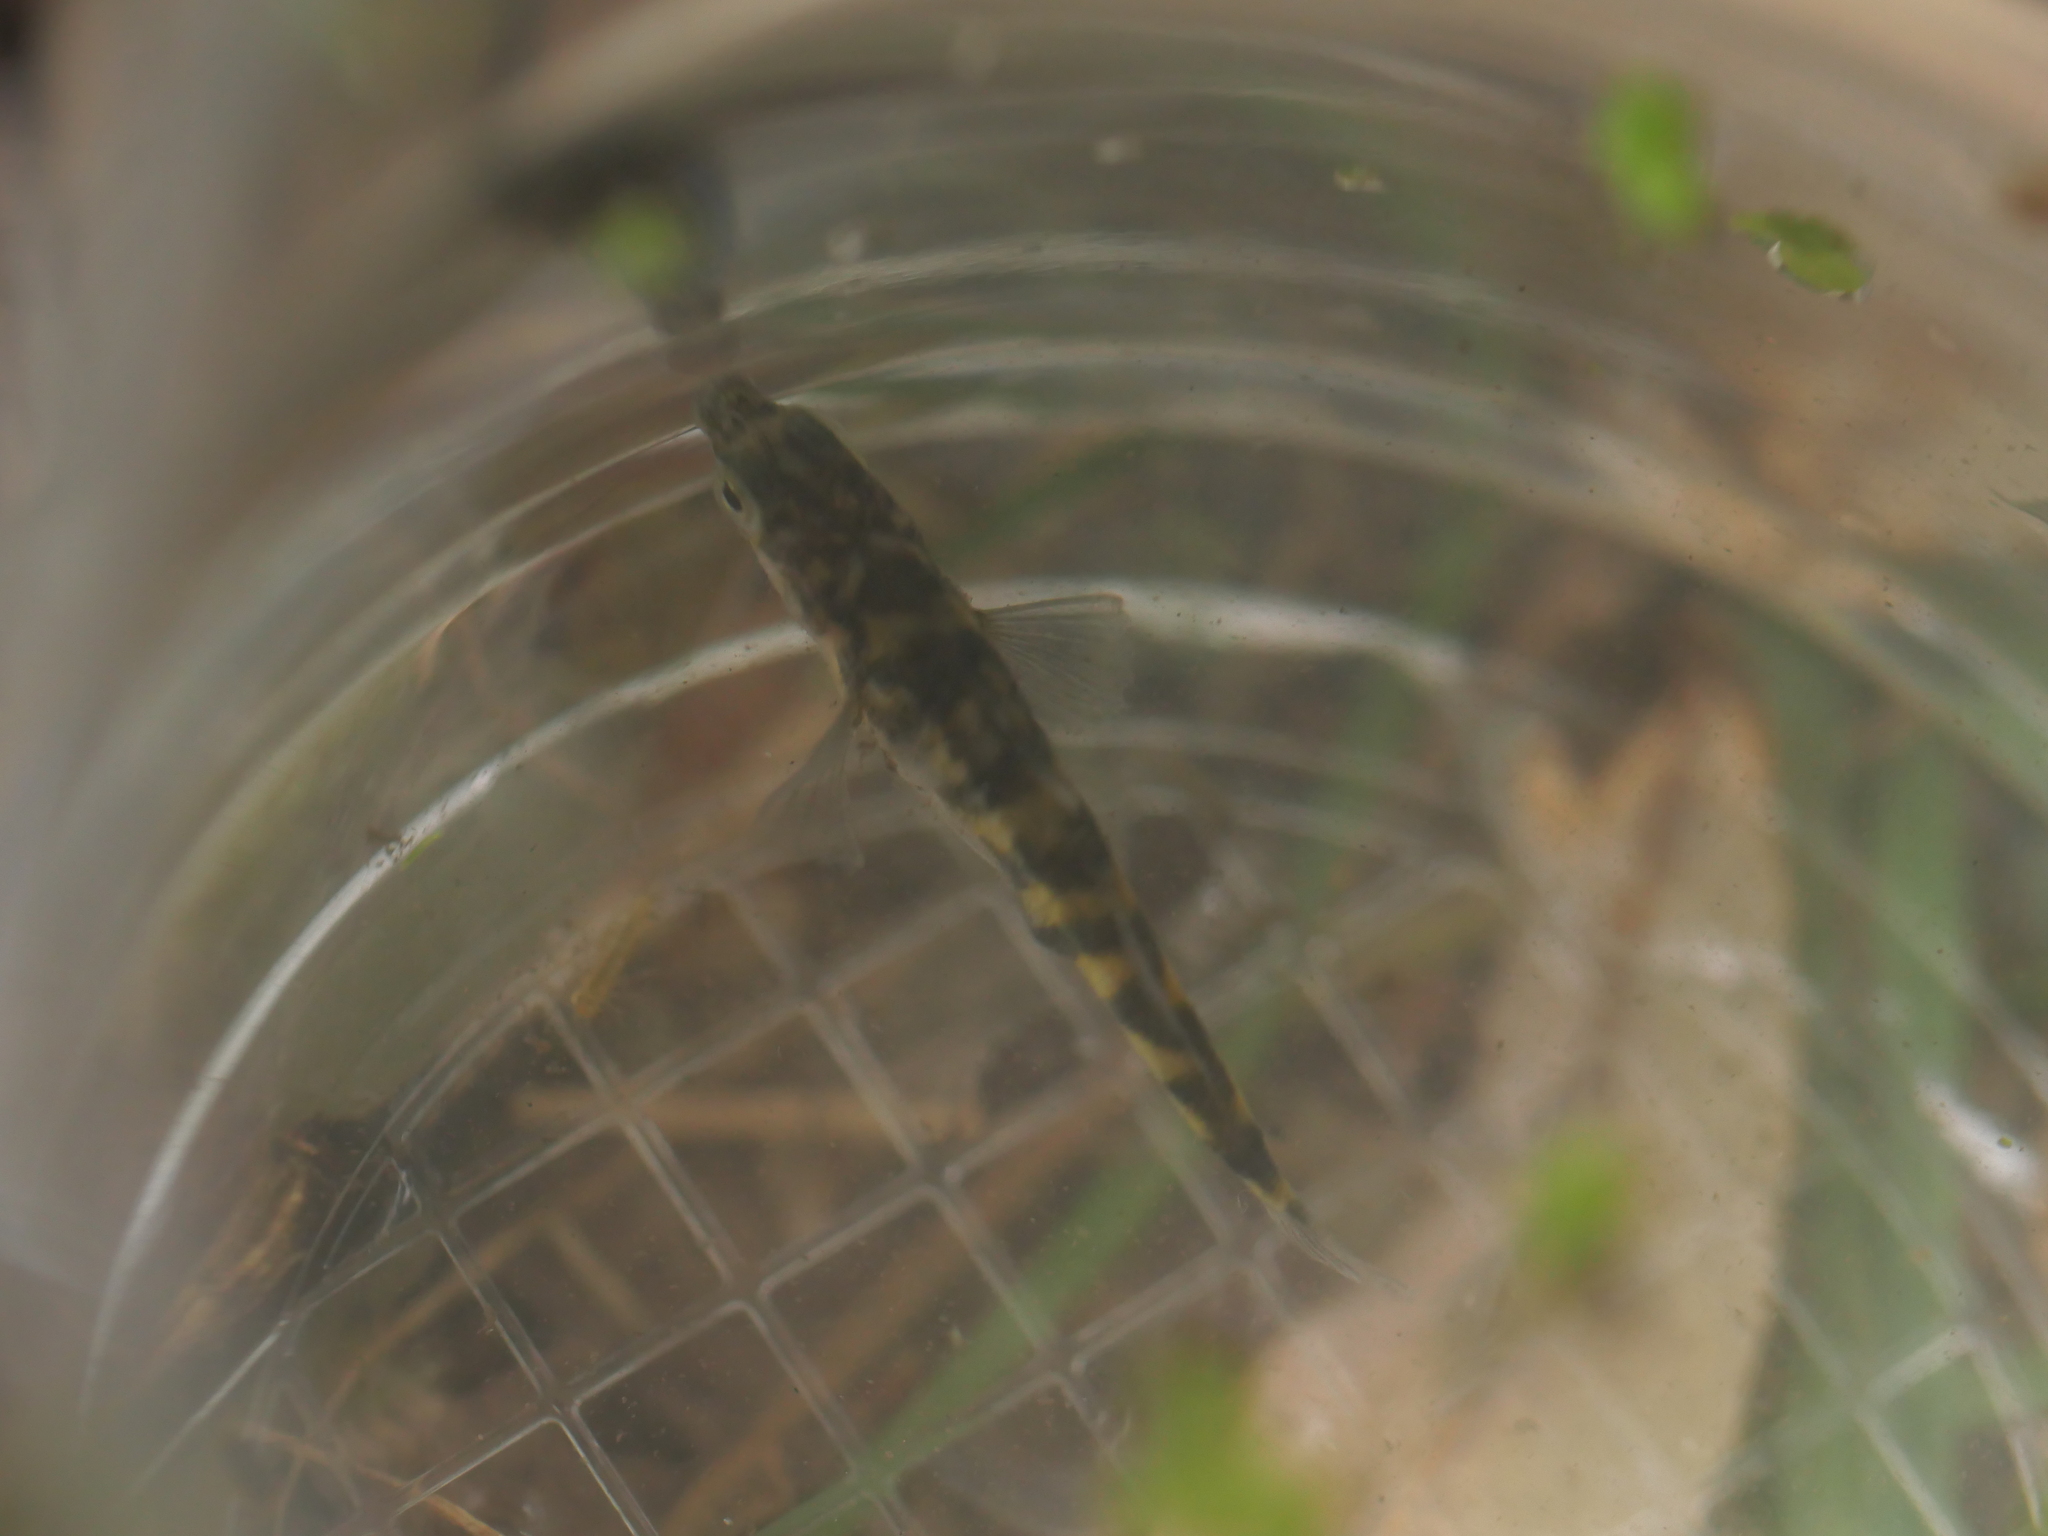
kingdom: Animalia
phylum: Chordata
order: Gasterosteiformes
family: Gasterosteidae
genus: Gasterosteus
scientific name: Gasterosteus aculeatus
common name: Three-spined stickleback
